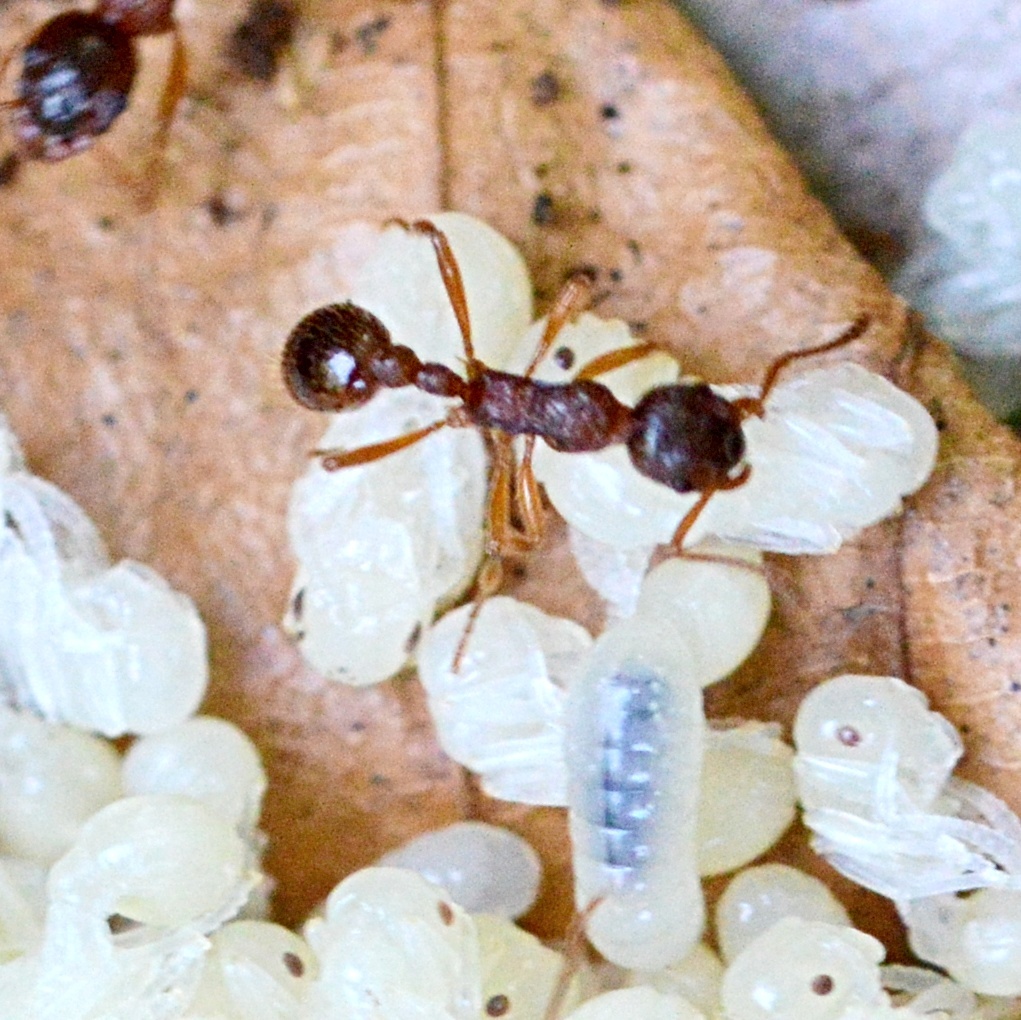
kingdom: Animalia
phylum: Arthropoda
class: Insecta
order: Hymenoptera
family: Formicidae
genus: Myrmica
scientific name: Myrmica rubra
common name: European fire ant
